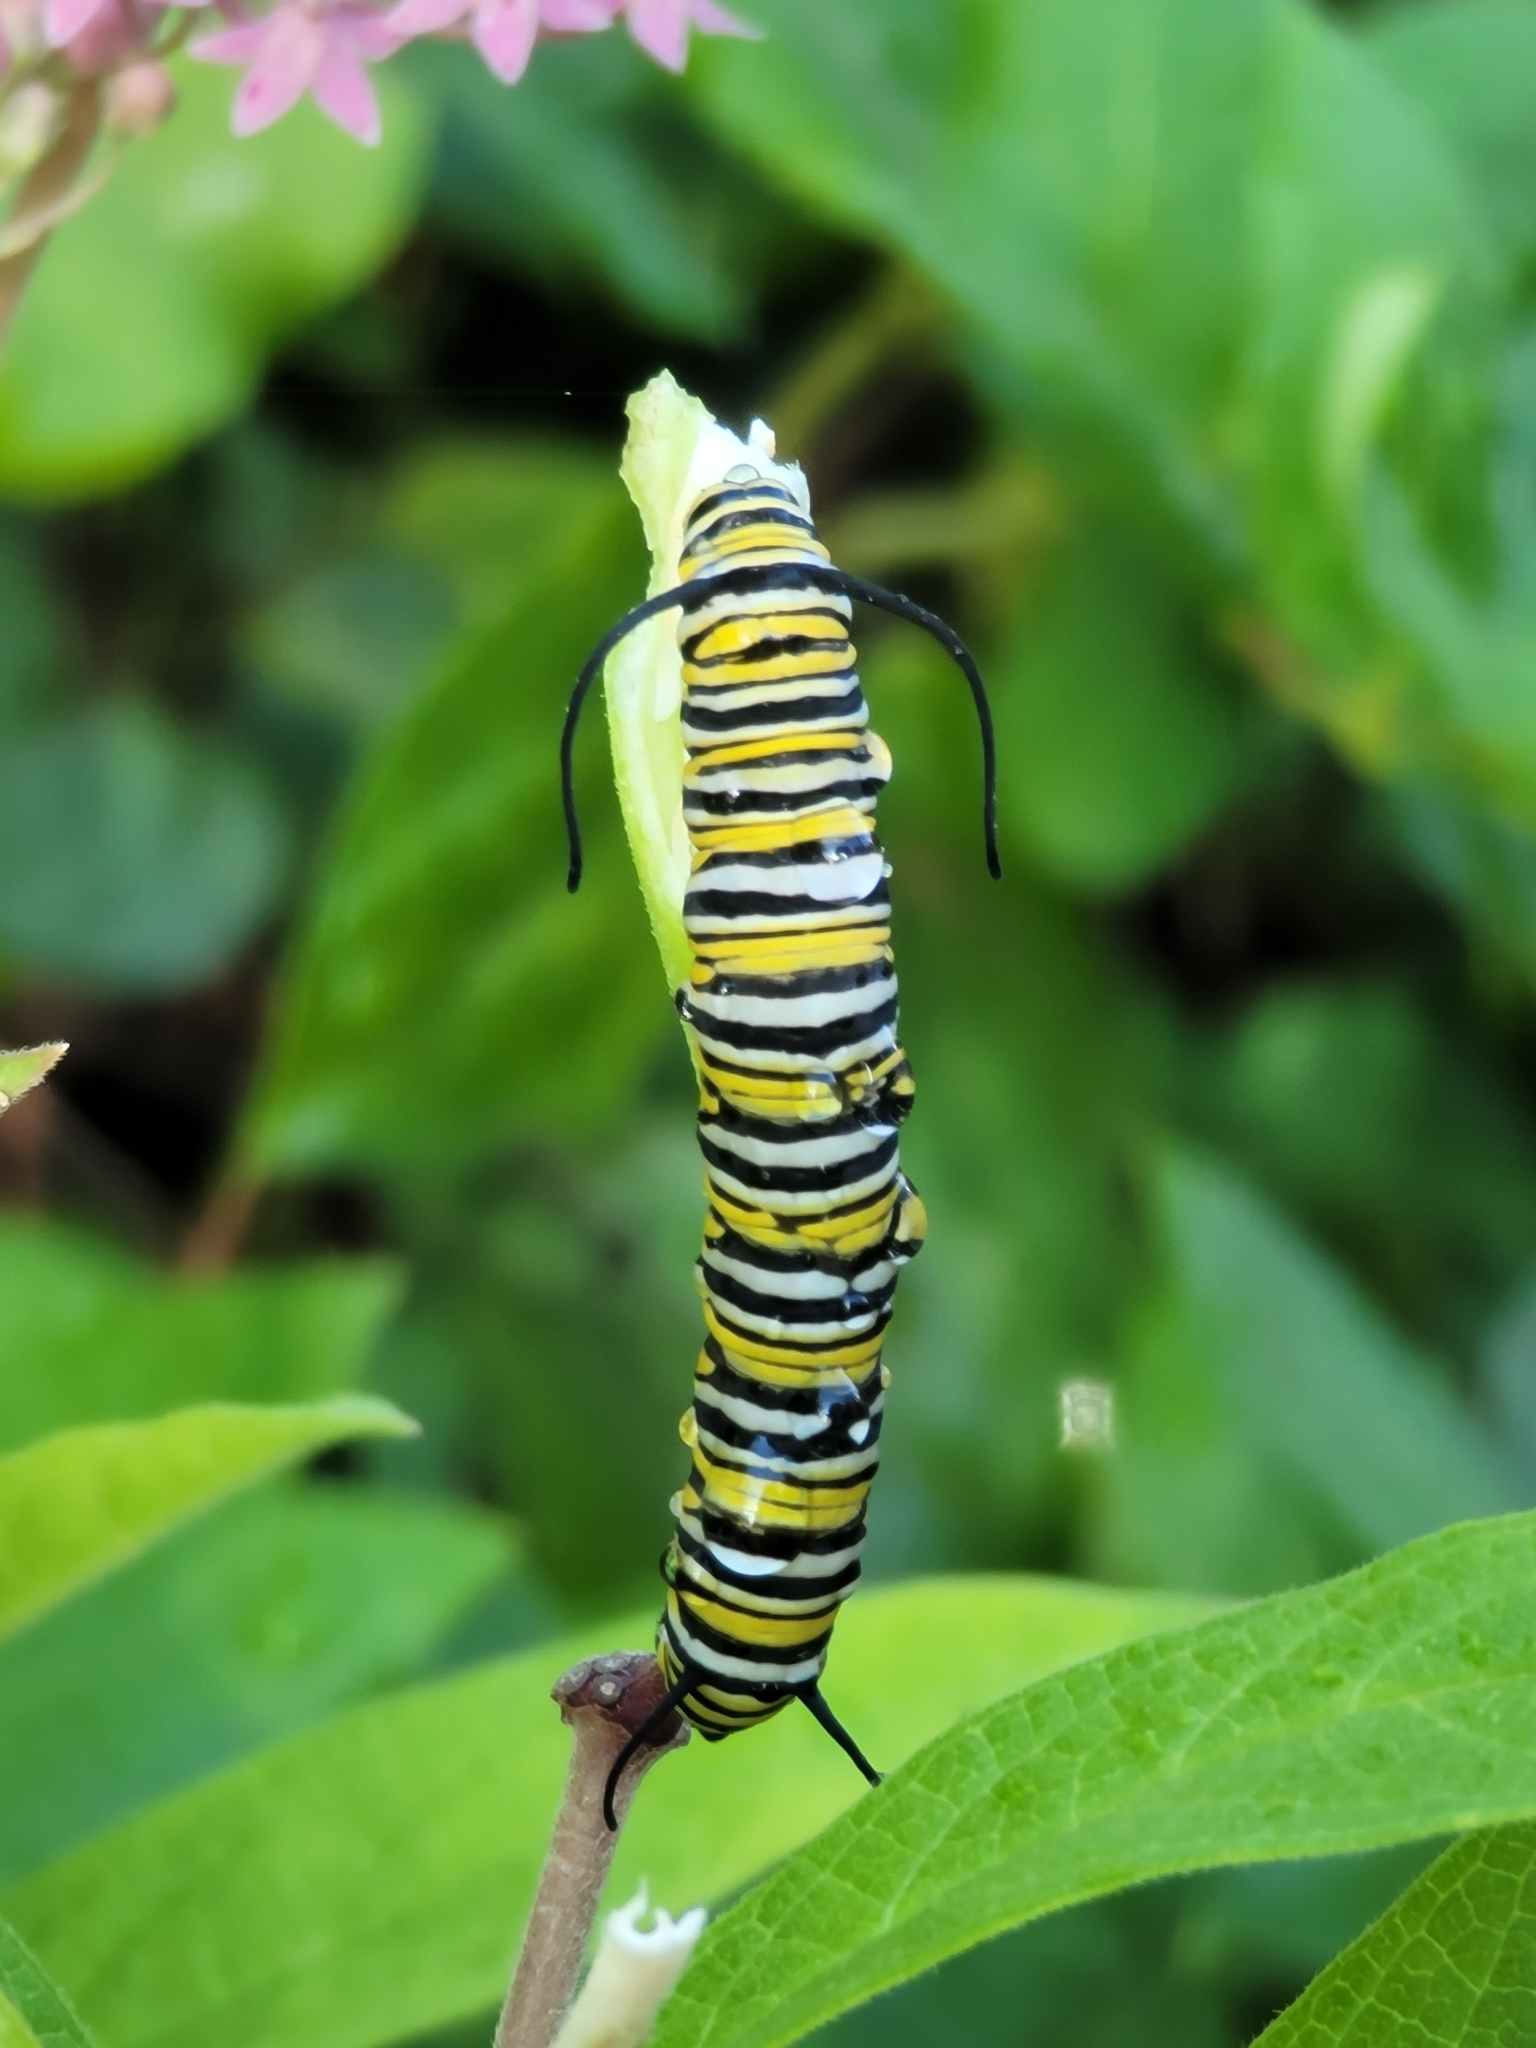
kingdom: Animalia
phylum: Arthropoda
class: Insecta
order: Lepidoptera
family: Nymphalidae
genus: Danaus
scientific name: Danaus plexippus
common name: Monarch
